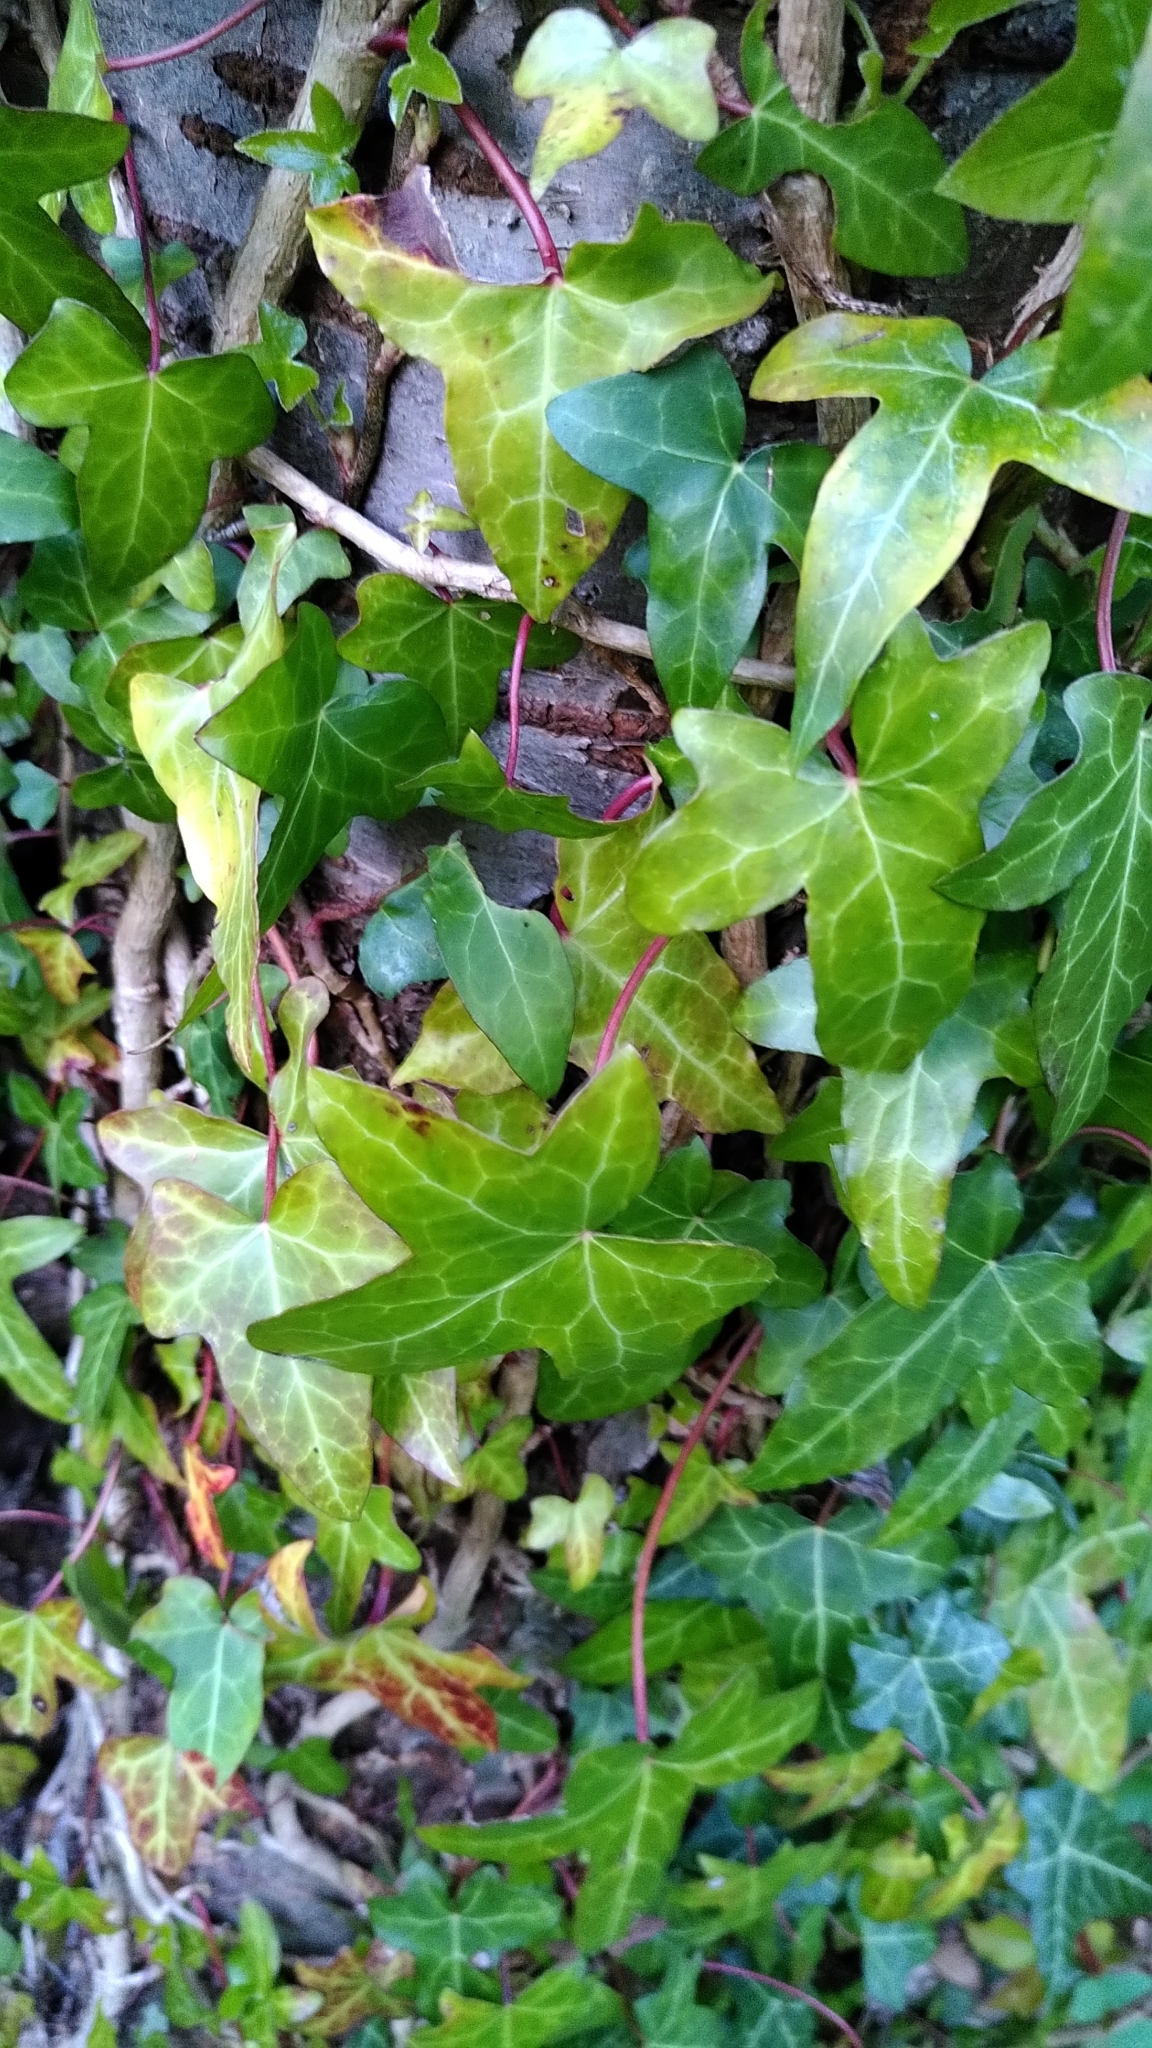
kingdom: Plantae
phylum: Tracheophyta
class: Magnoliopsida
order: Apiales
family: Araliaceae
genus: Hedera
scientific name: Hedera helix
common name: Ivy
